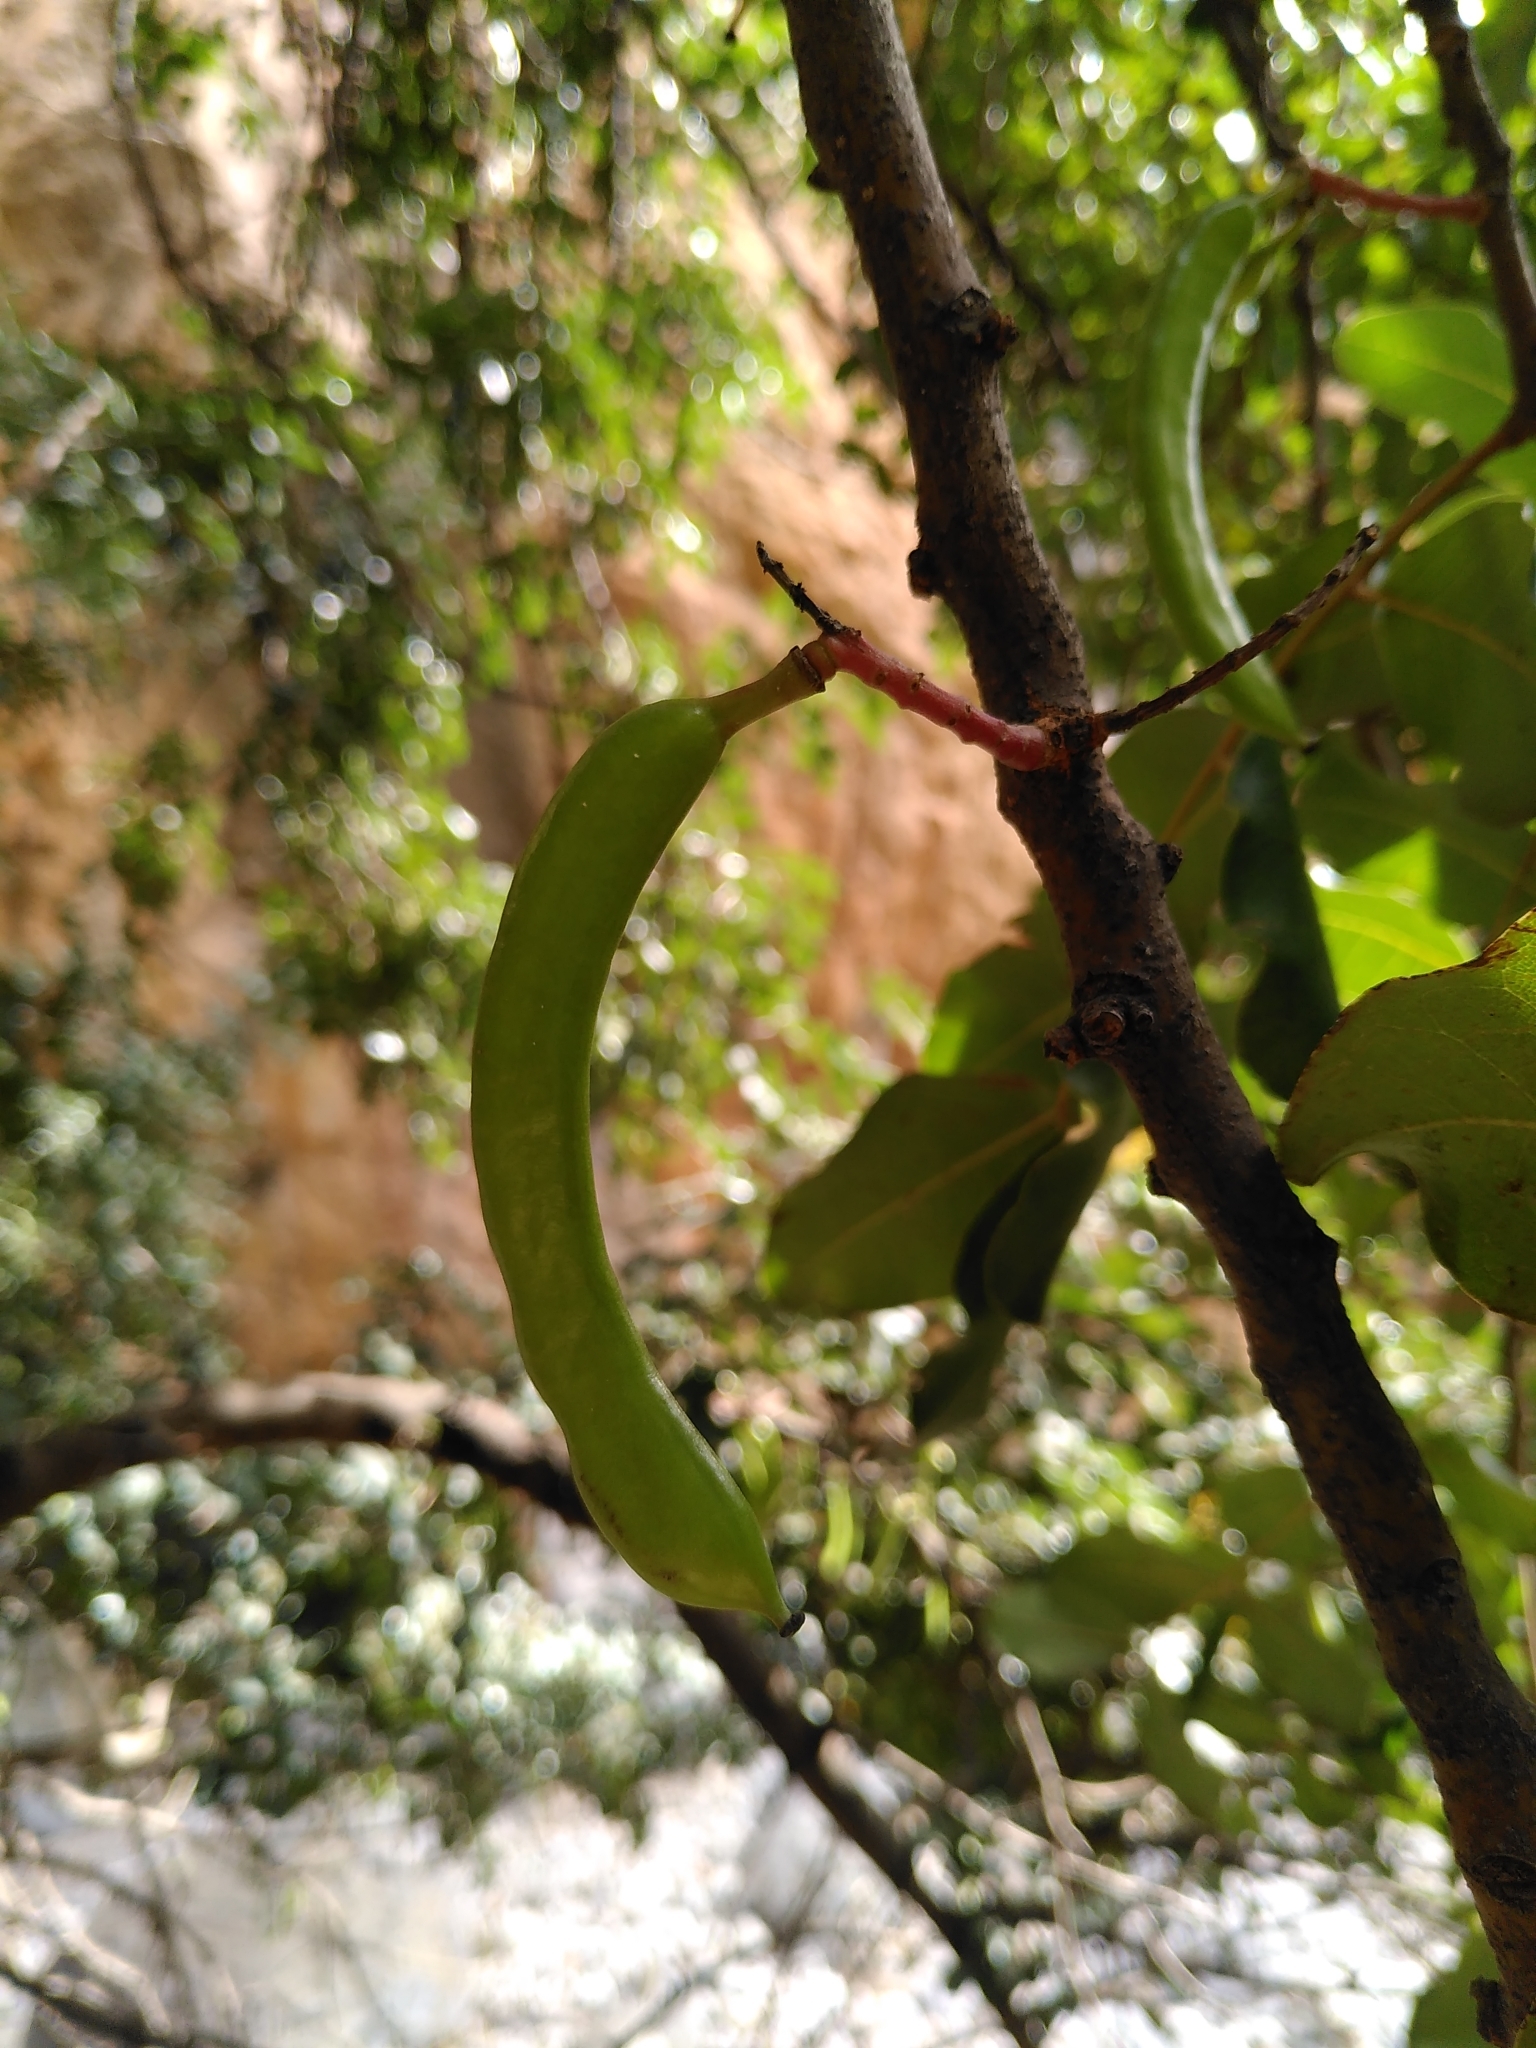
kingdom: Plantae
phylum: Tracheophyta
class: Magnoliopsida
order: Fabales
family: Fabaceae
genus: Ceratonia
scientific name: Ceratonia siliqua
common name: Carob
